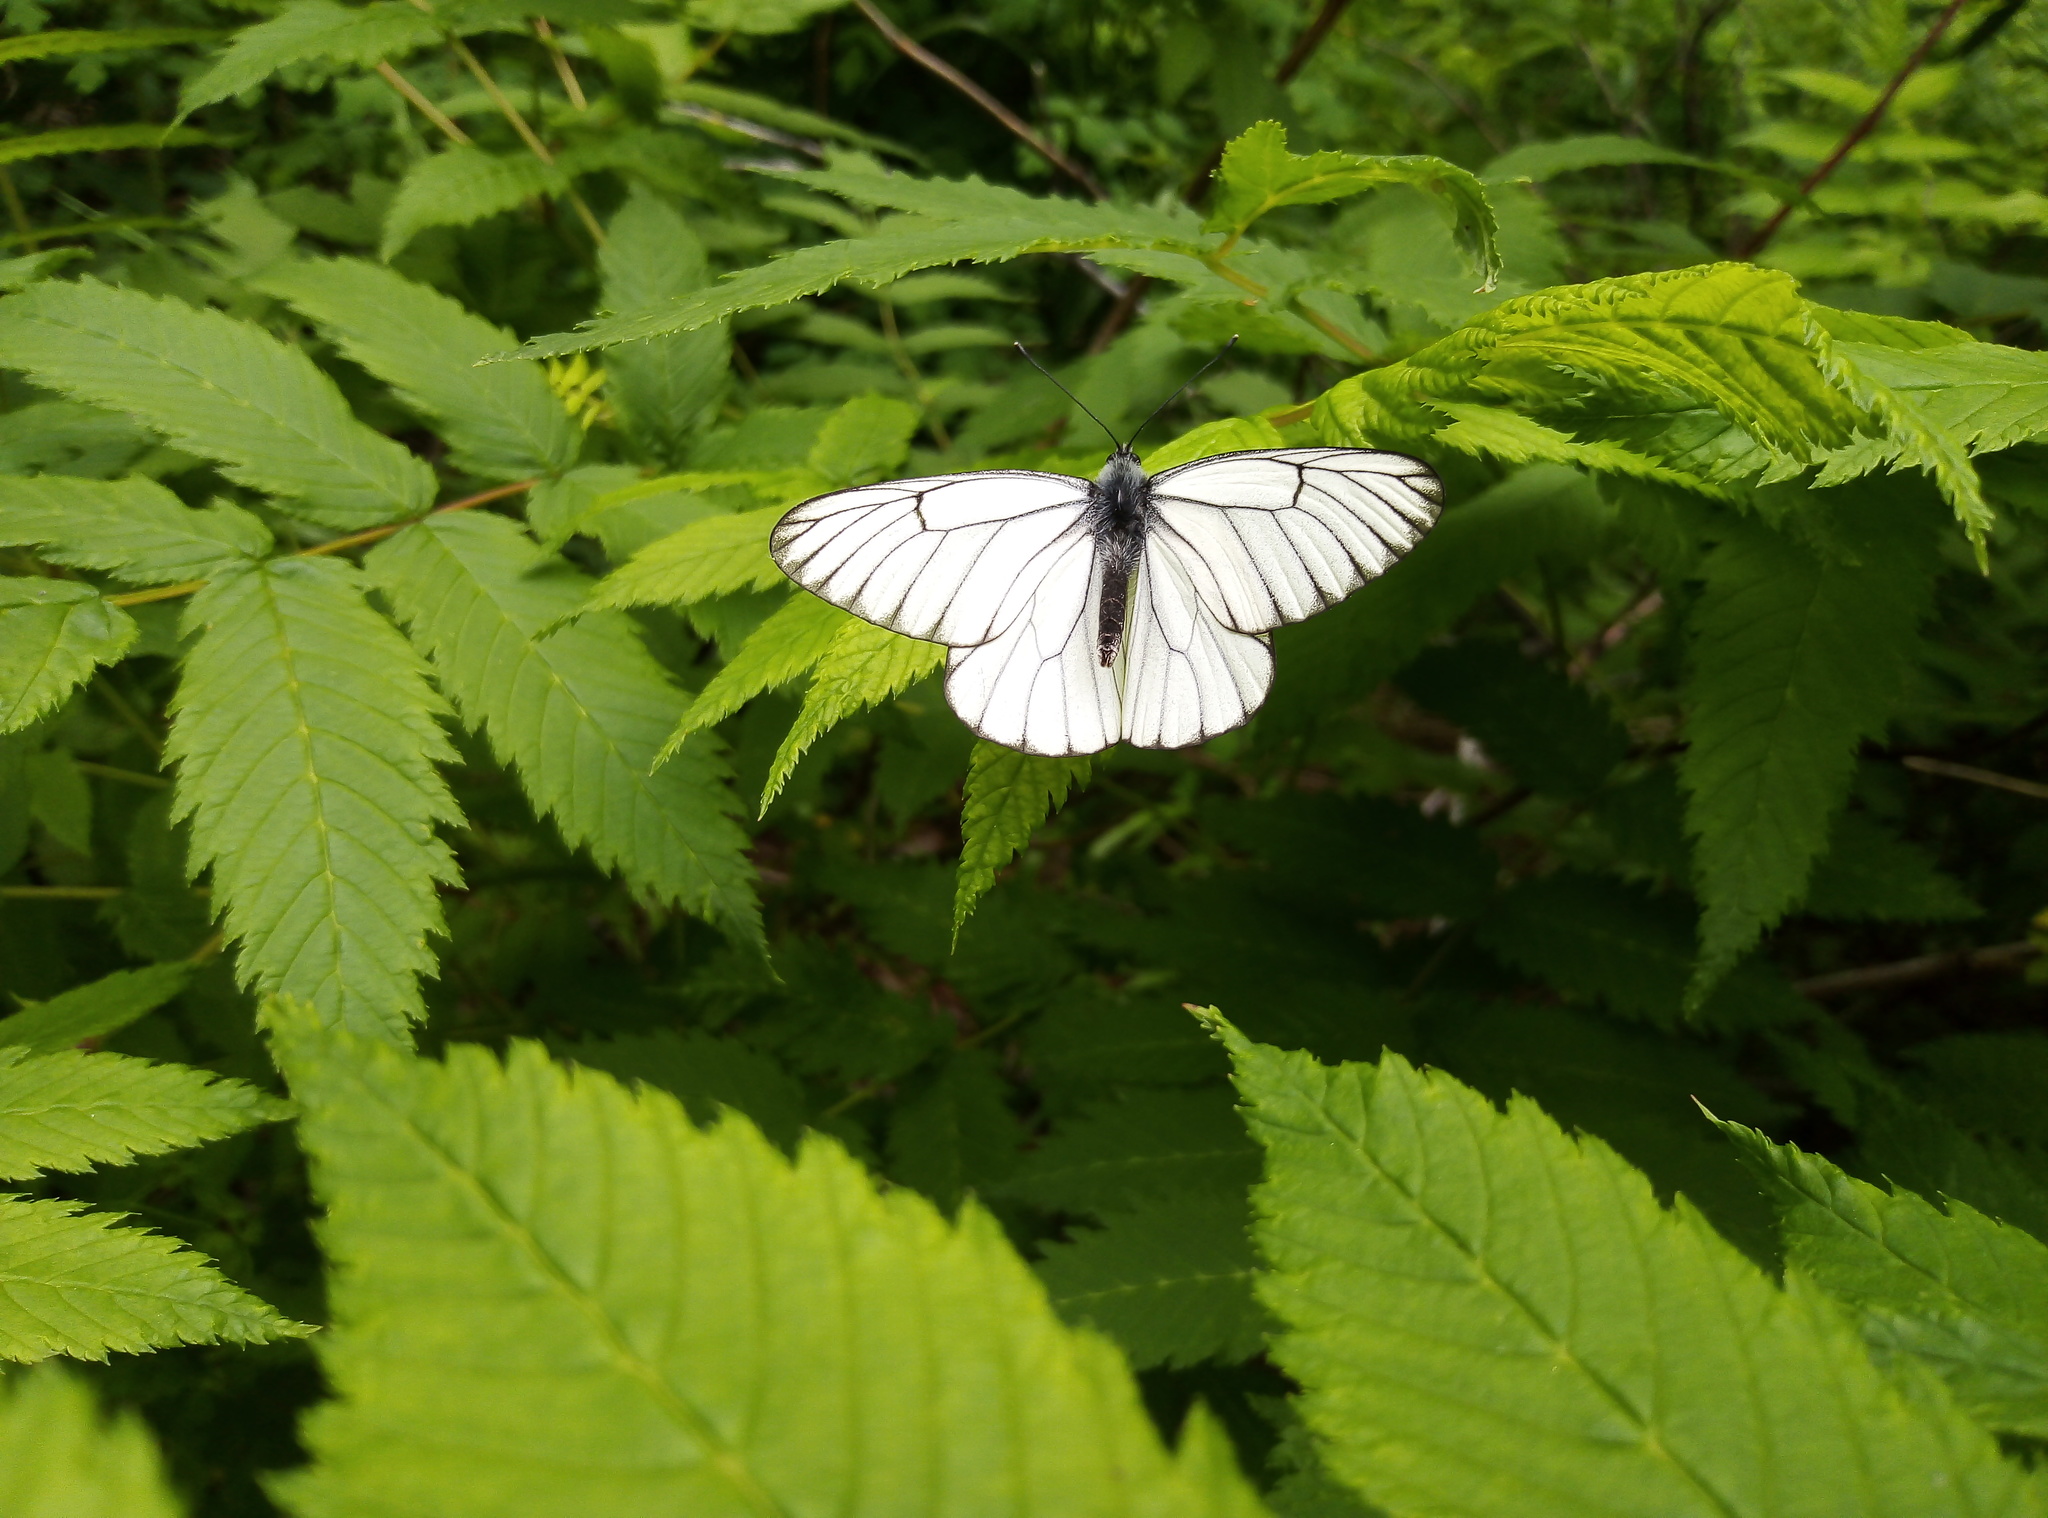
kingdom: Animalia
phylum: Arthropoda
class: Insecta
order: Lepidoptera
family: Pieridae
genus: Aporia
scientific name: Aporia crataegi
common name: Black-veined white
